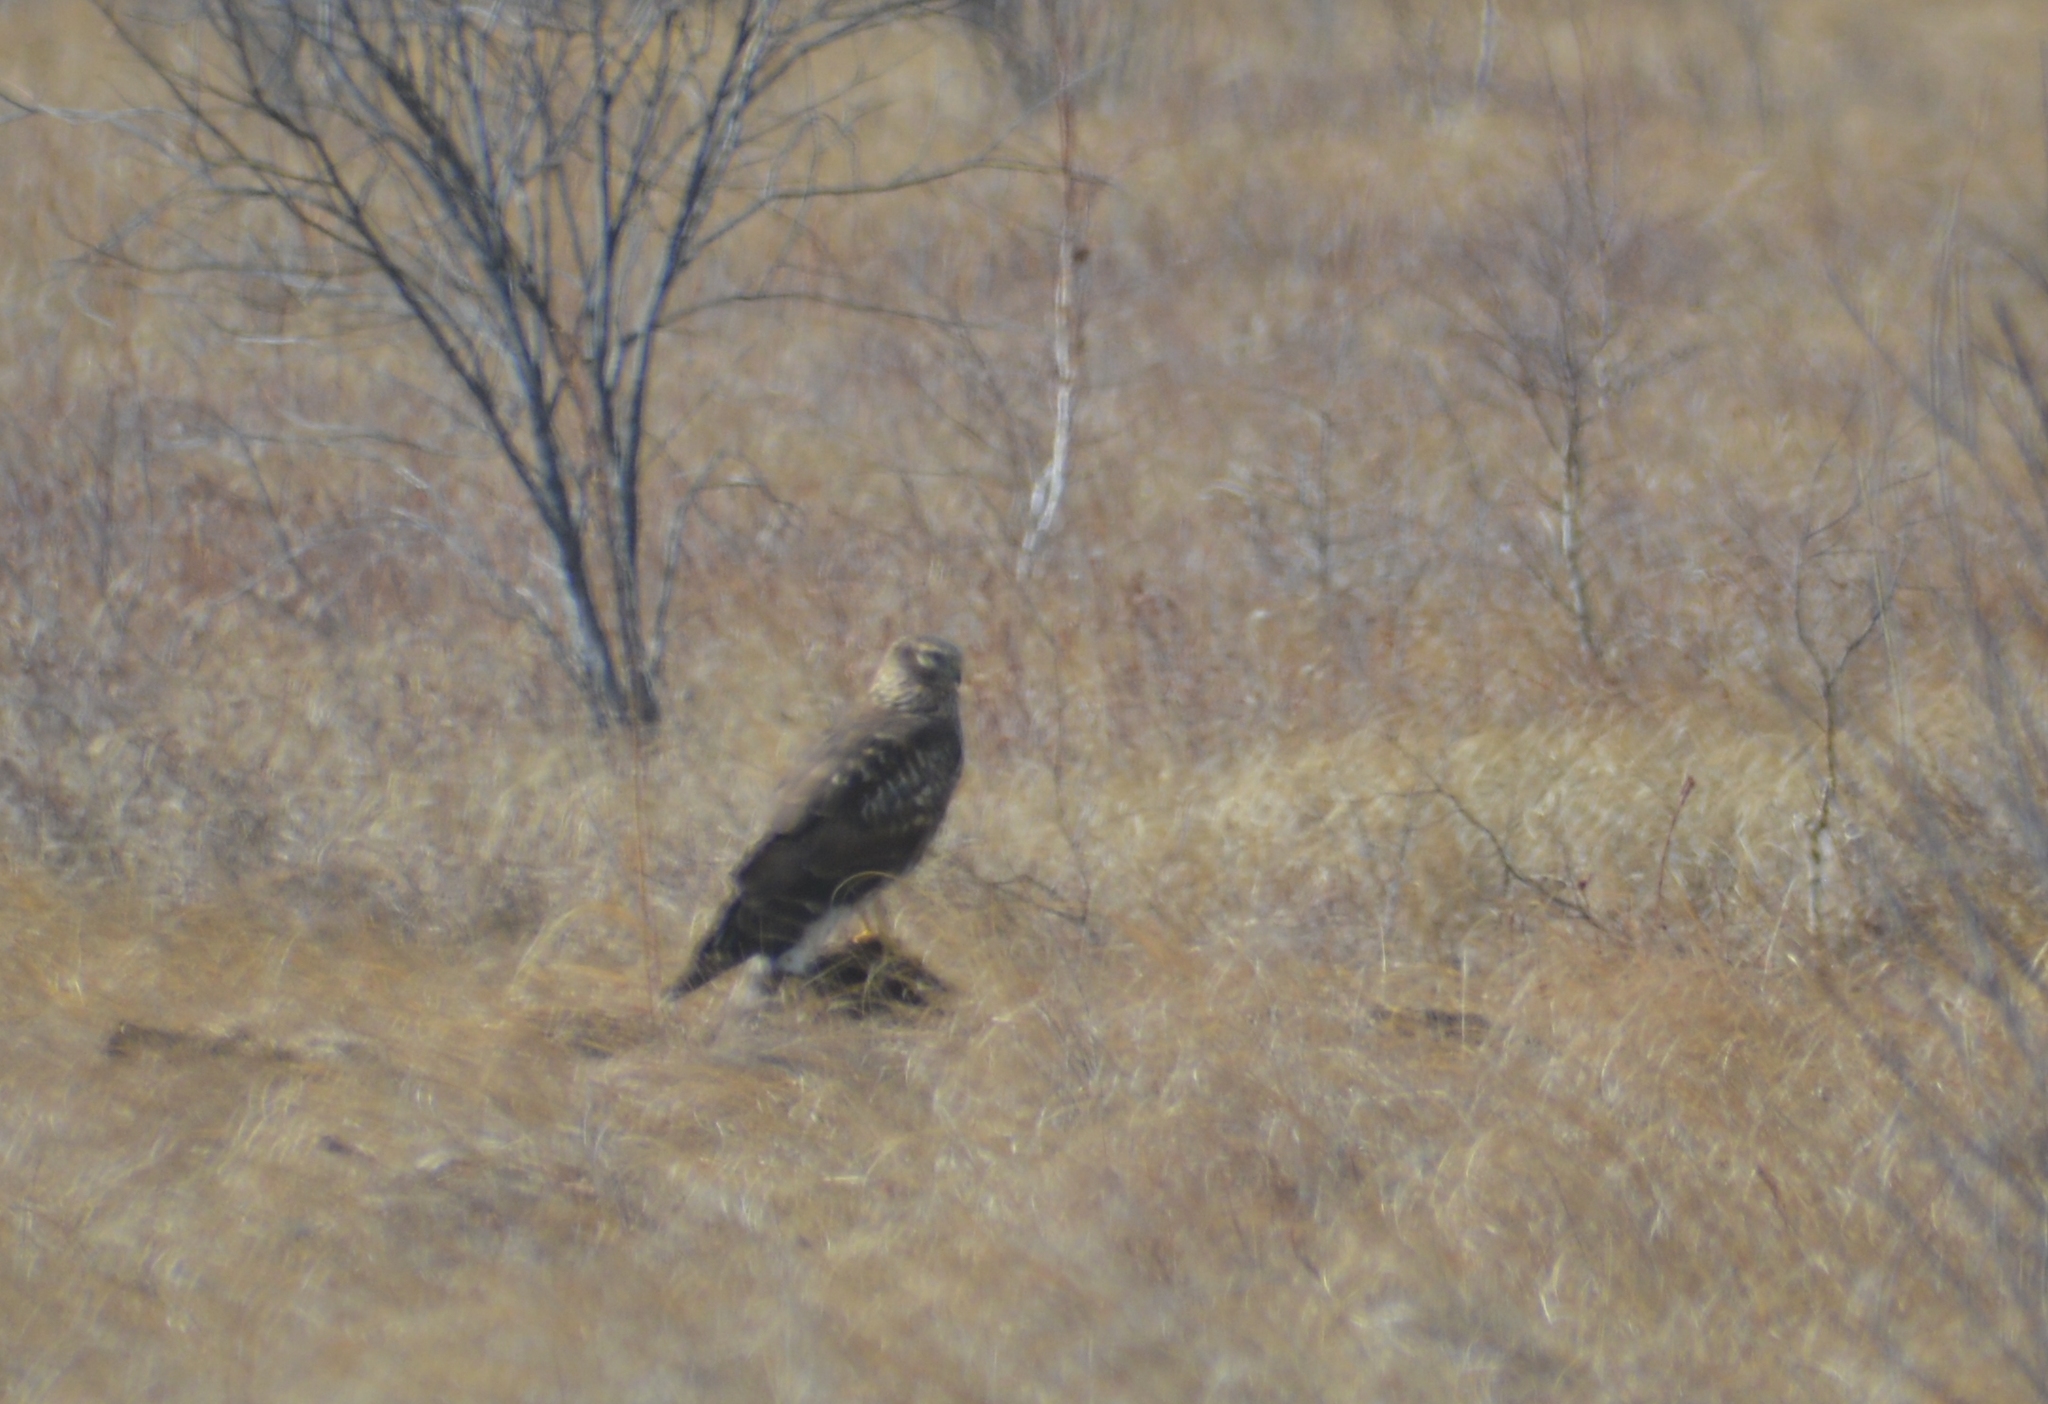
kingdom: Animalia
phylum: Chordata
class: Aves
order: Accipitriformes
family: Accipitridae
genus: Circus
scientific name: Circus cyaneus
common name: Hen harrier
